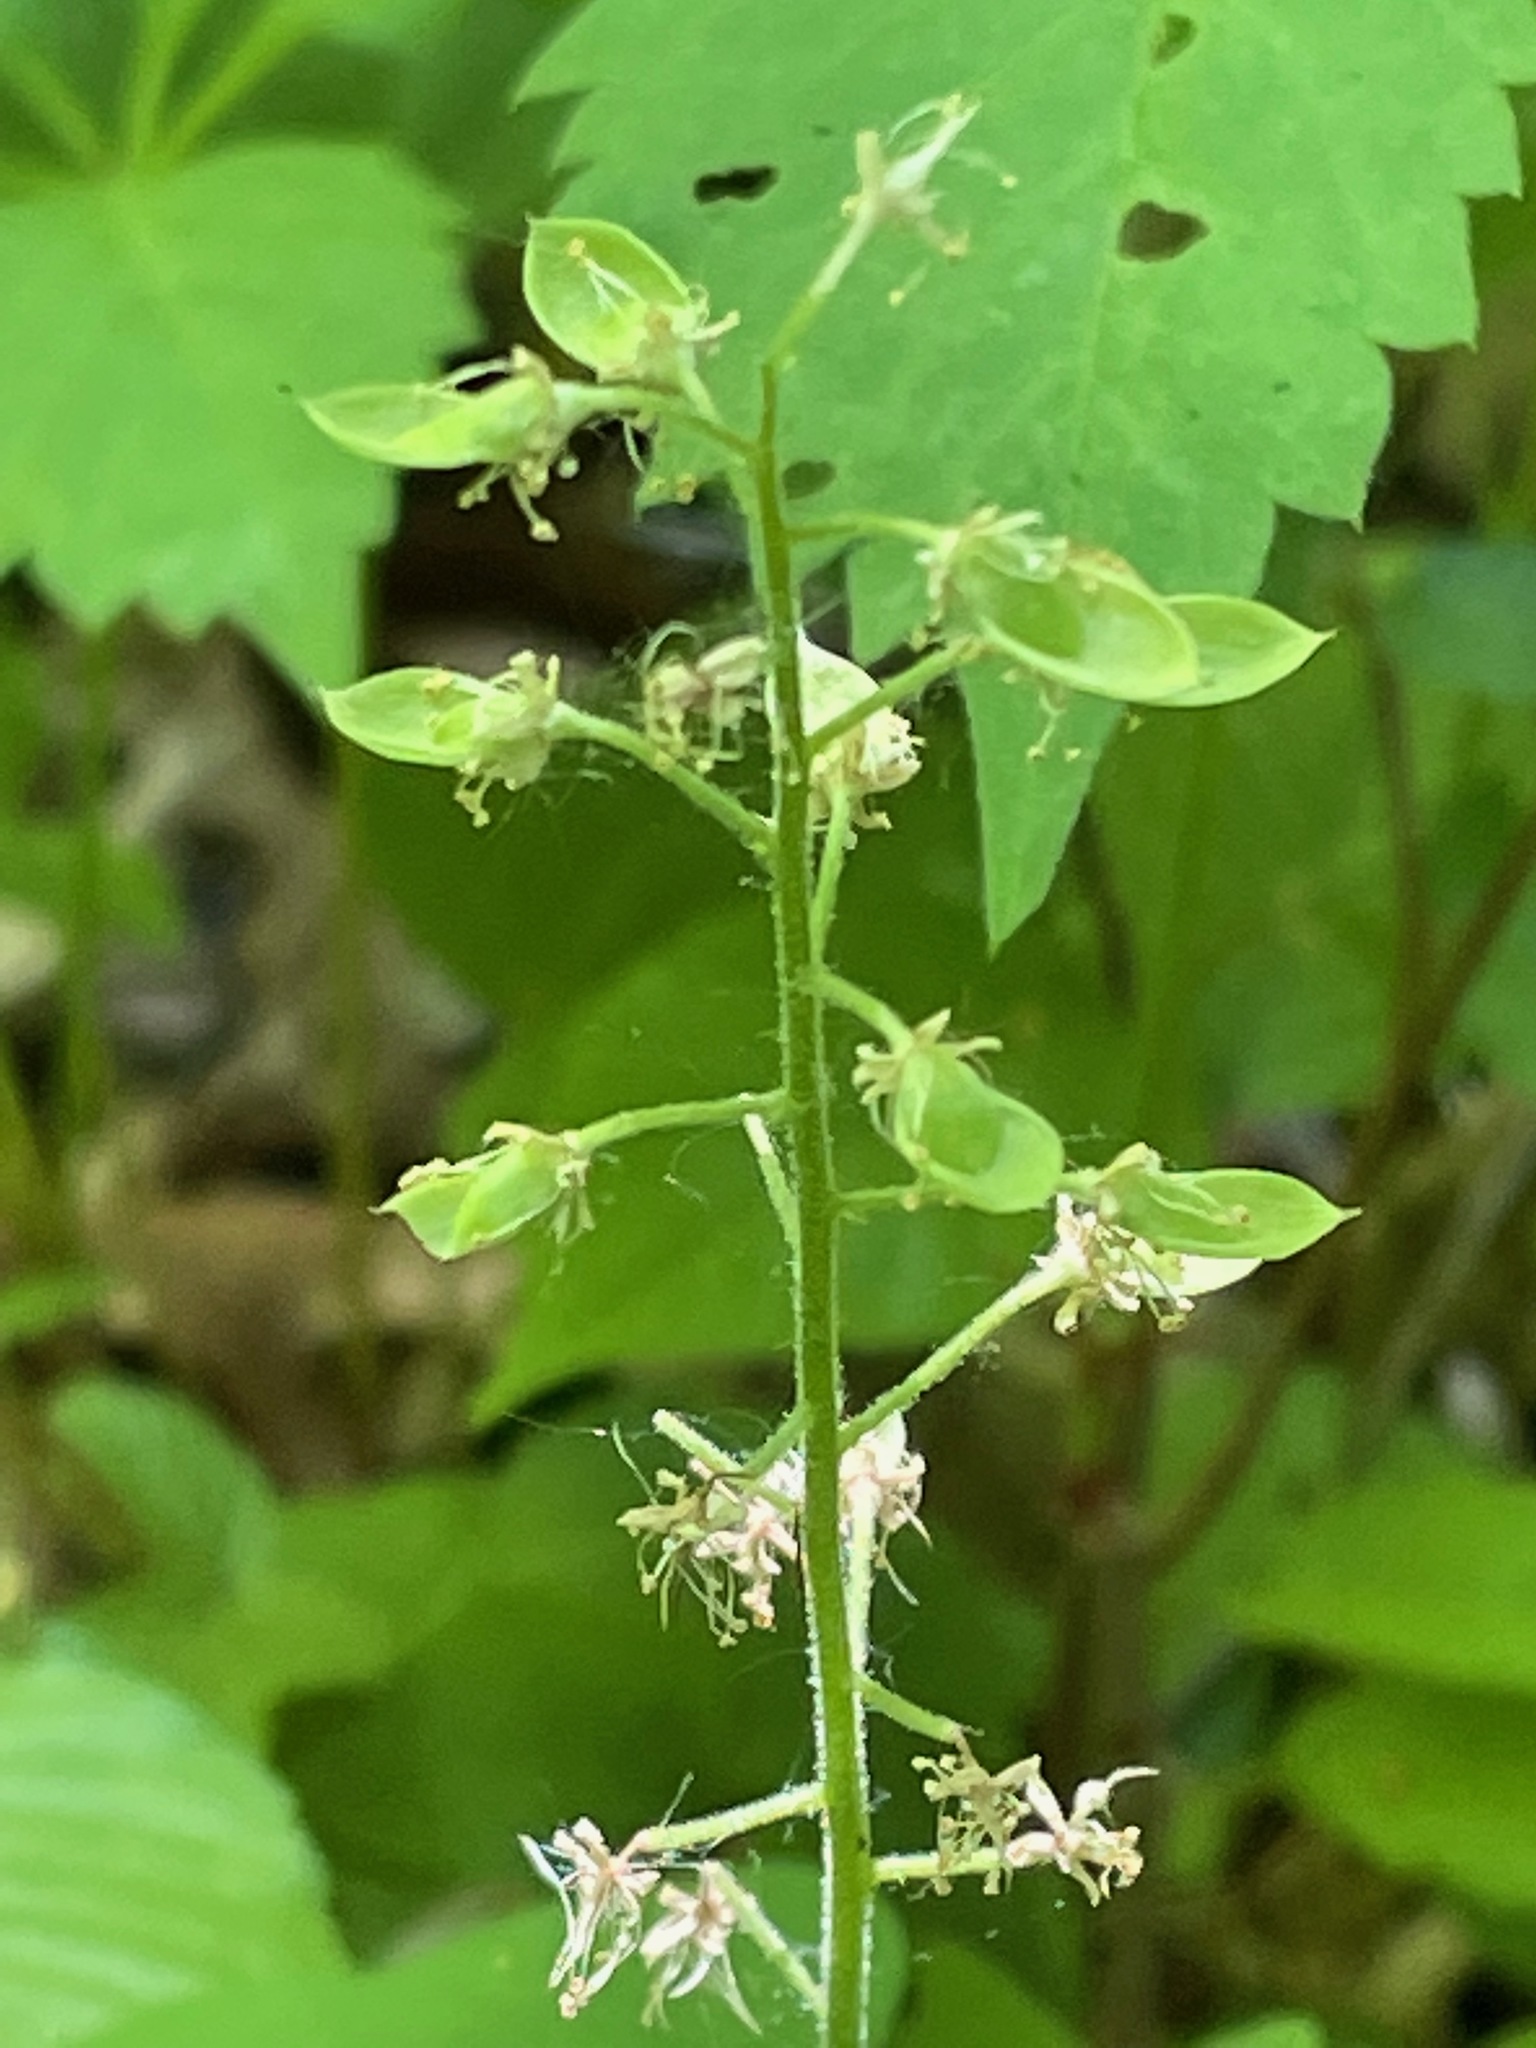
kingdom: Plantae
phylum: Tracheophyta
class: Magnoliopsida
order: Saxifragales
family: Saxifragaceae
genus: Tiarella
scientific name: Tiarella stolonifera
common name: Stoloniferous foamflower
